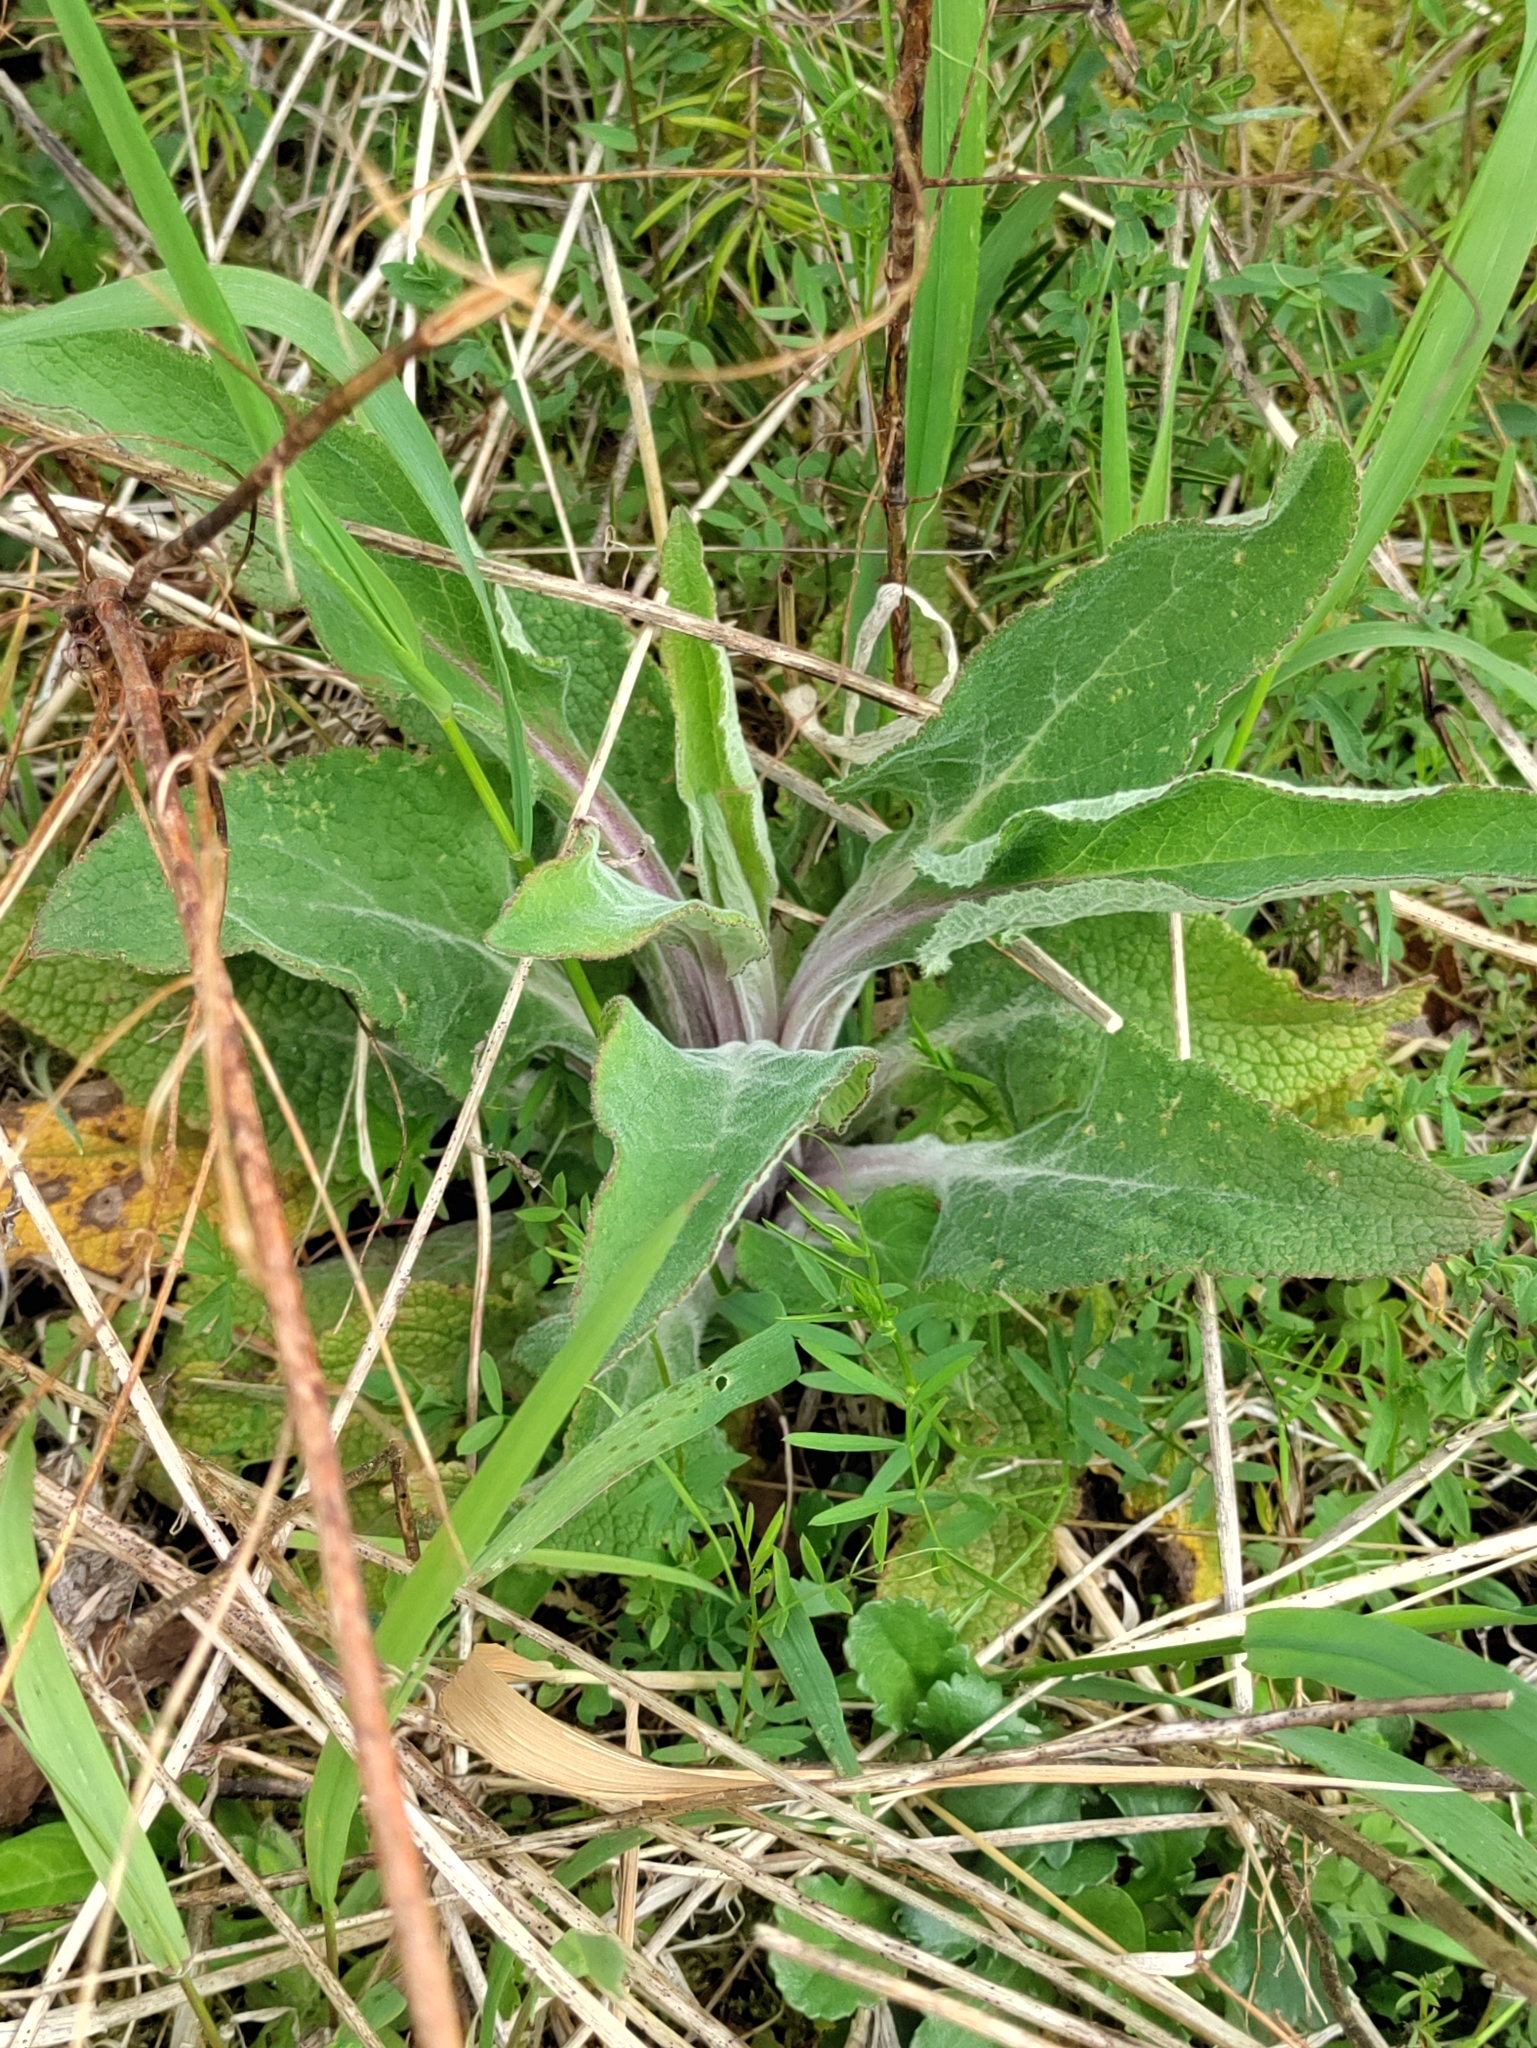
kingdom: Plantae
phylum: Tracheophyta
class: Magnoliopsida
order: Lamiales
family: Plantaginaceae
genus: Digitalis
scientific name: Digitalis purpurea
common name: Foxglove
